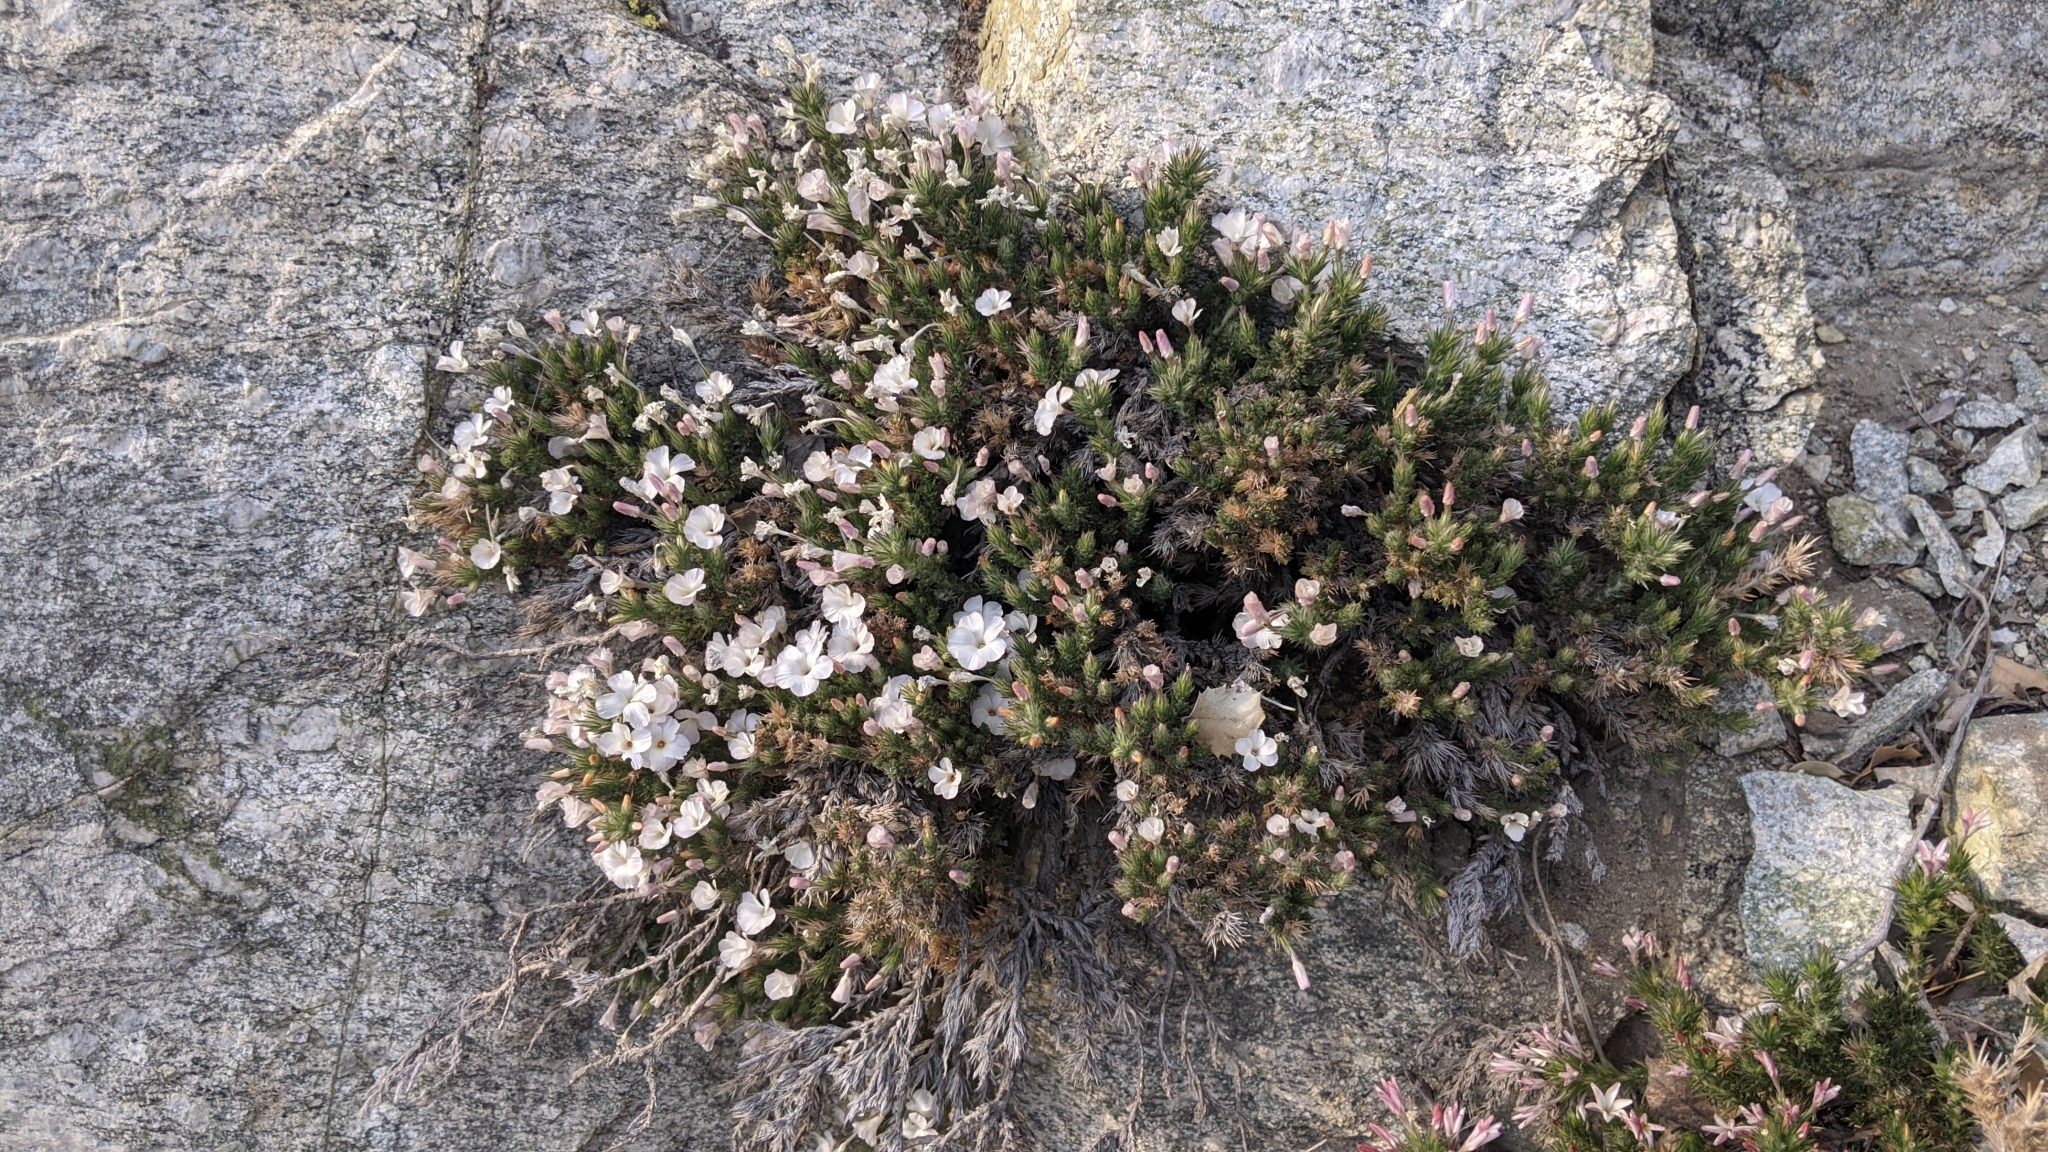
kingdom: Plantae
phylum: Tracheophyta
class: Magnoliopsida
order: Ericales
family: Polemoniaceae
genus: Linanthus
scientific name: Linanthus pungens
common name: Granite prickly phlox
